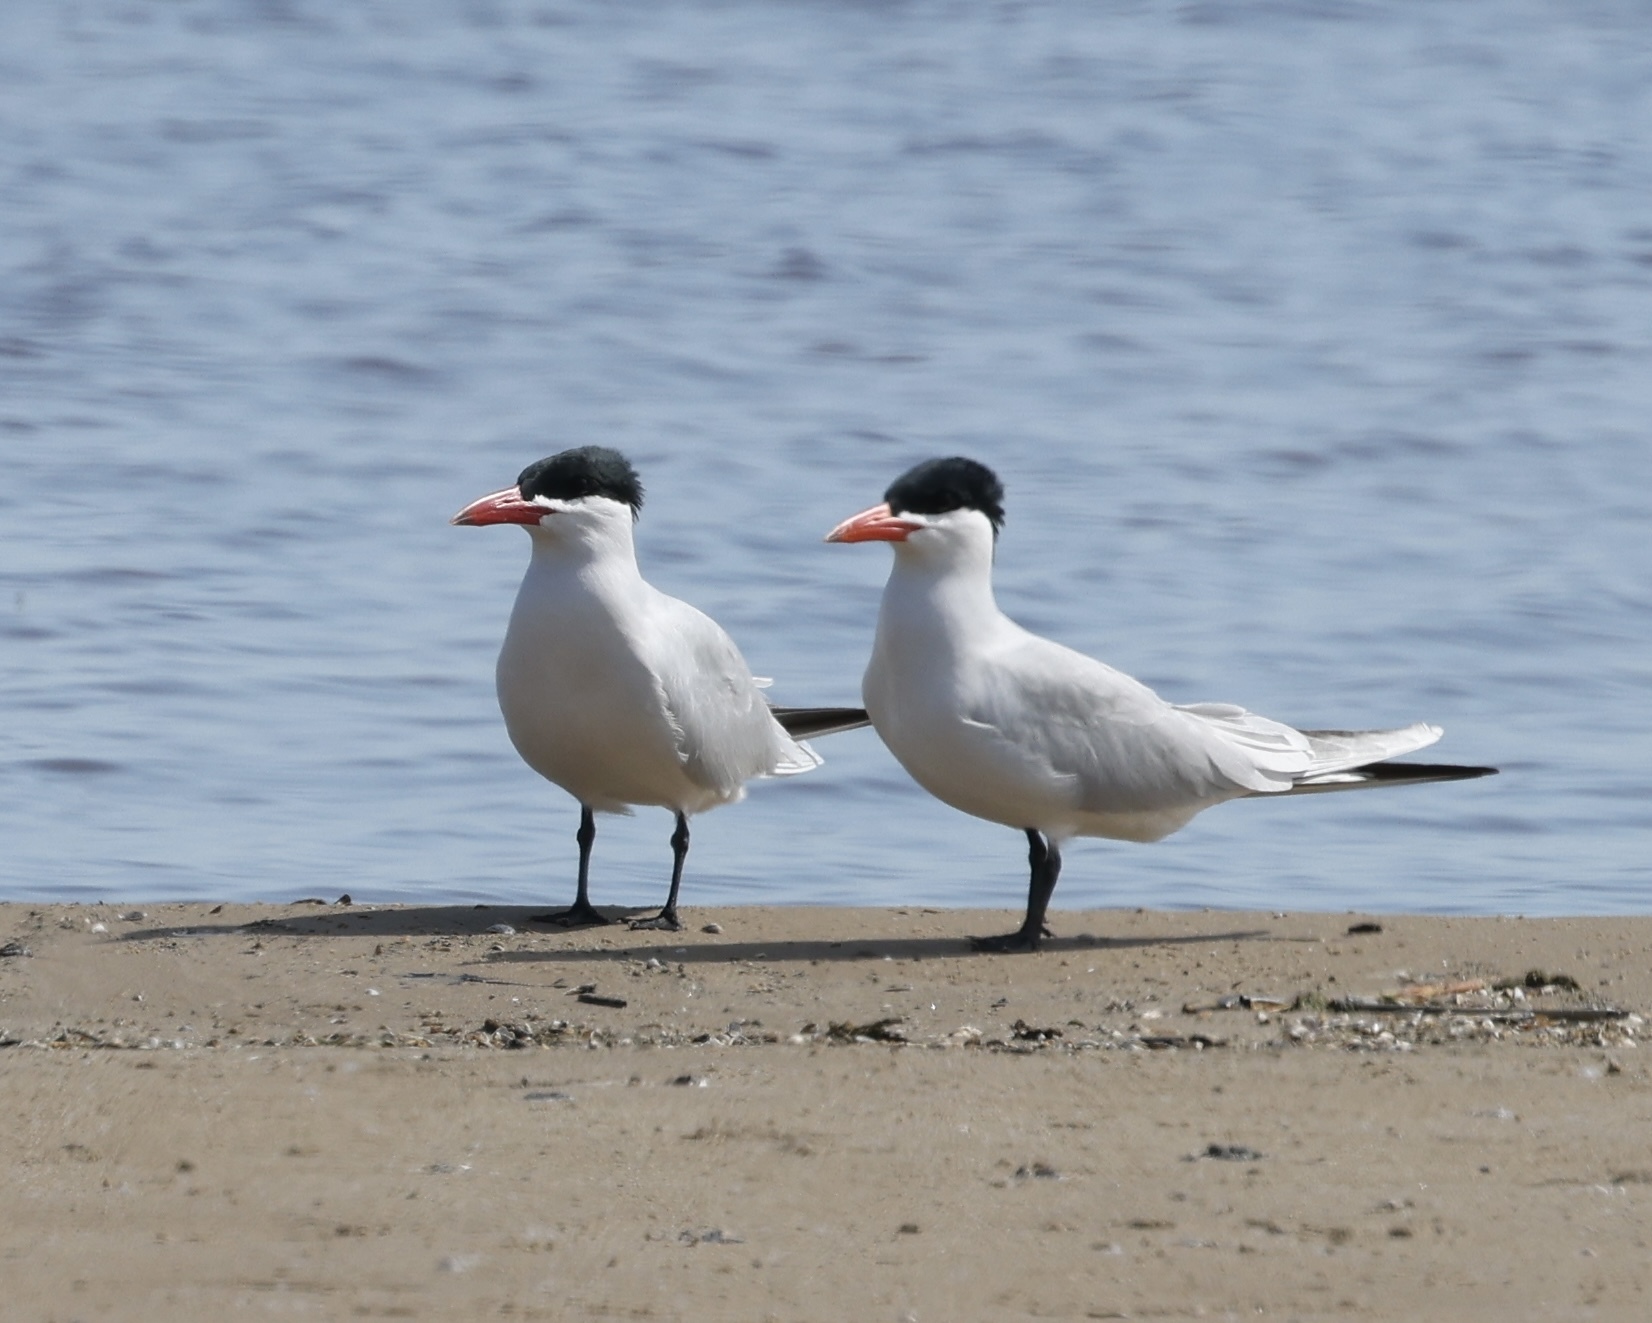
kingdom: Animalia
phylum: Chordata
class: Aves
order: Charadriiformes
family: Laridae
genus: Hydroprogne
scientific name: Hydroprogne caspia
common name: Caspian tern
